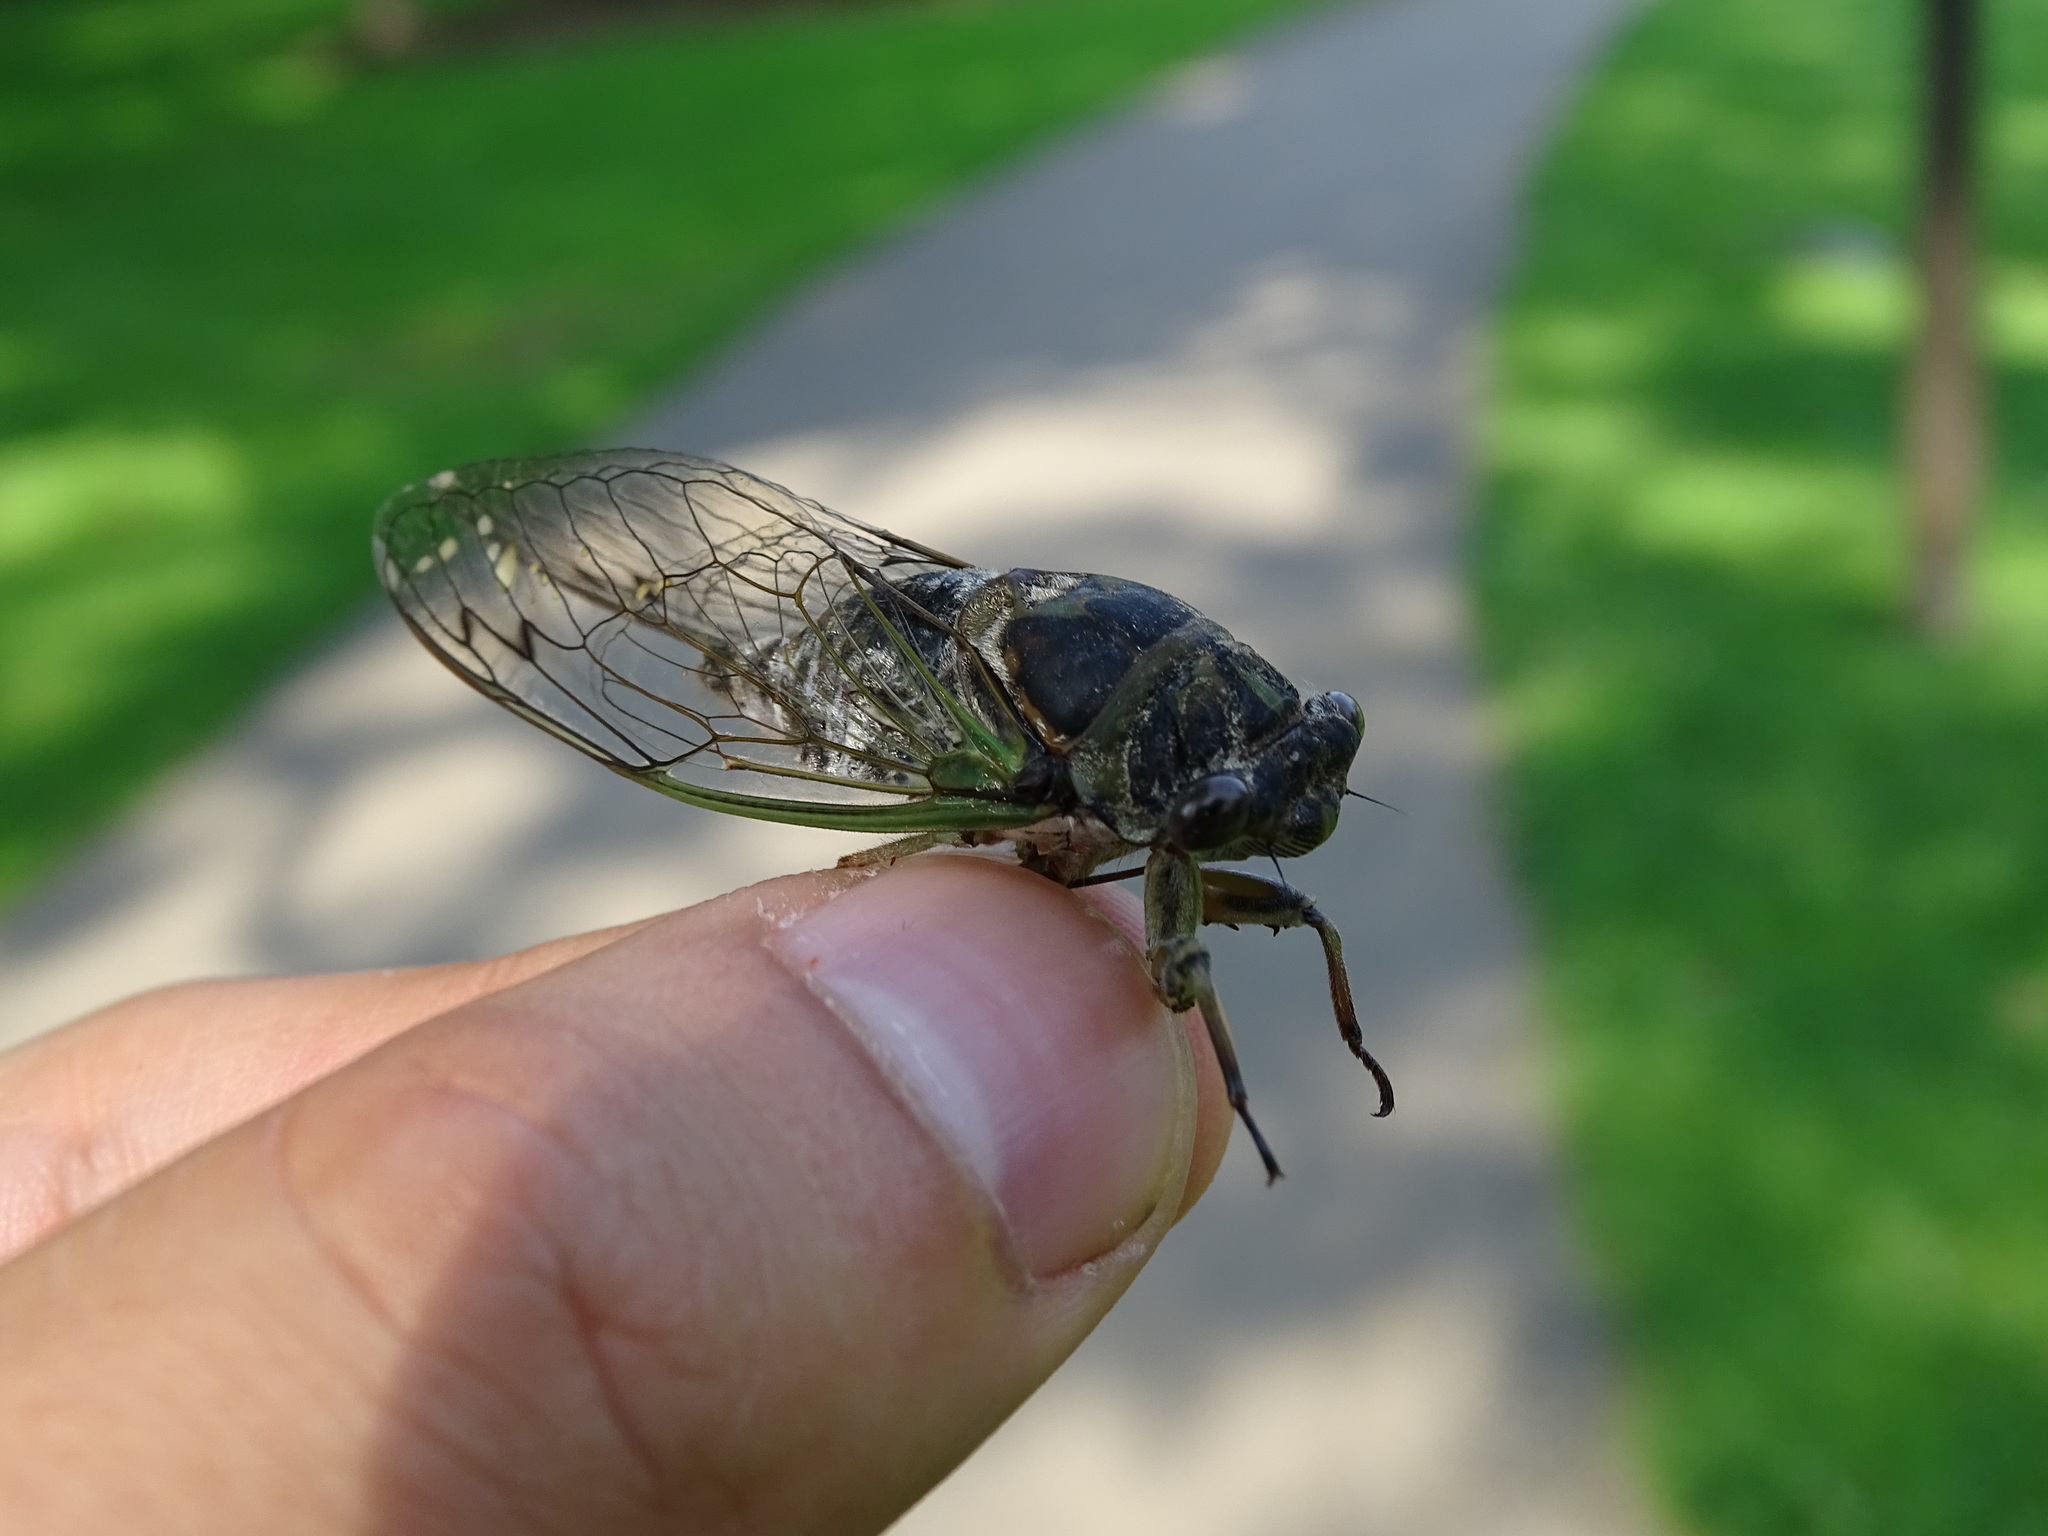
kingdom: Animalia
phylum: Arthropoda
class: Insecta
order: Hemiptera
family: Cicadidae
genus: Neotibicen
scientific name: Neotibicen canicularis
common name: God-day cicada
